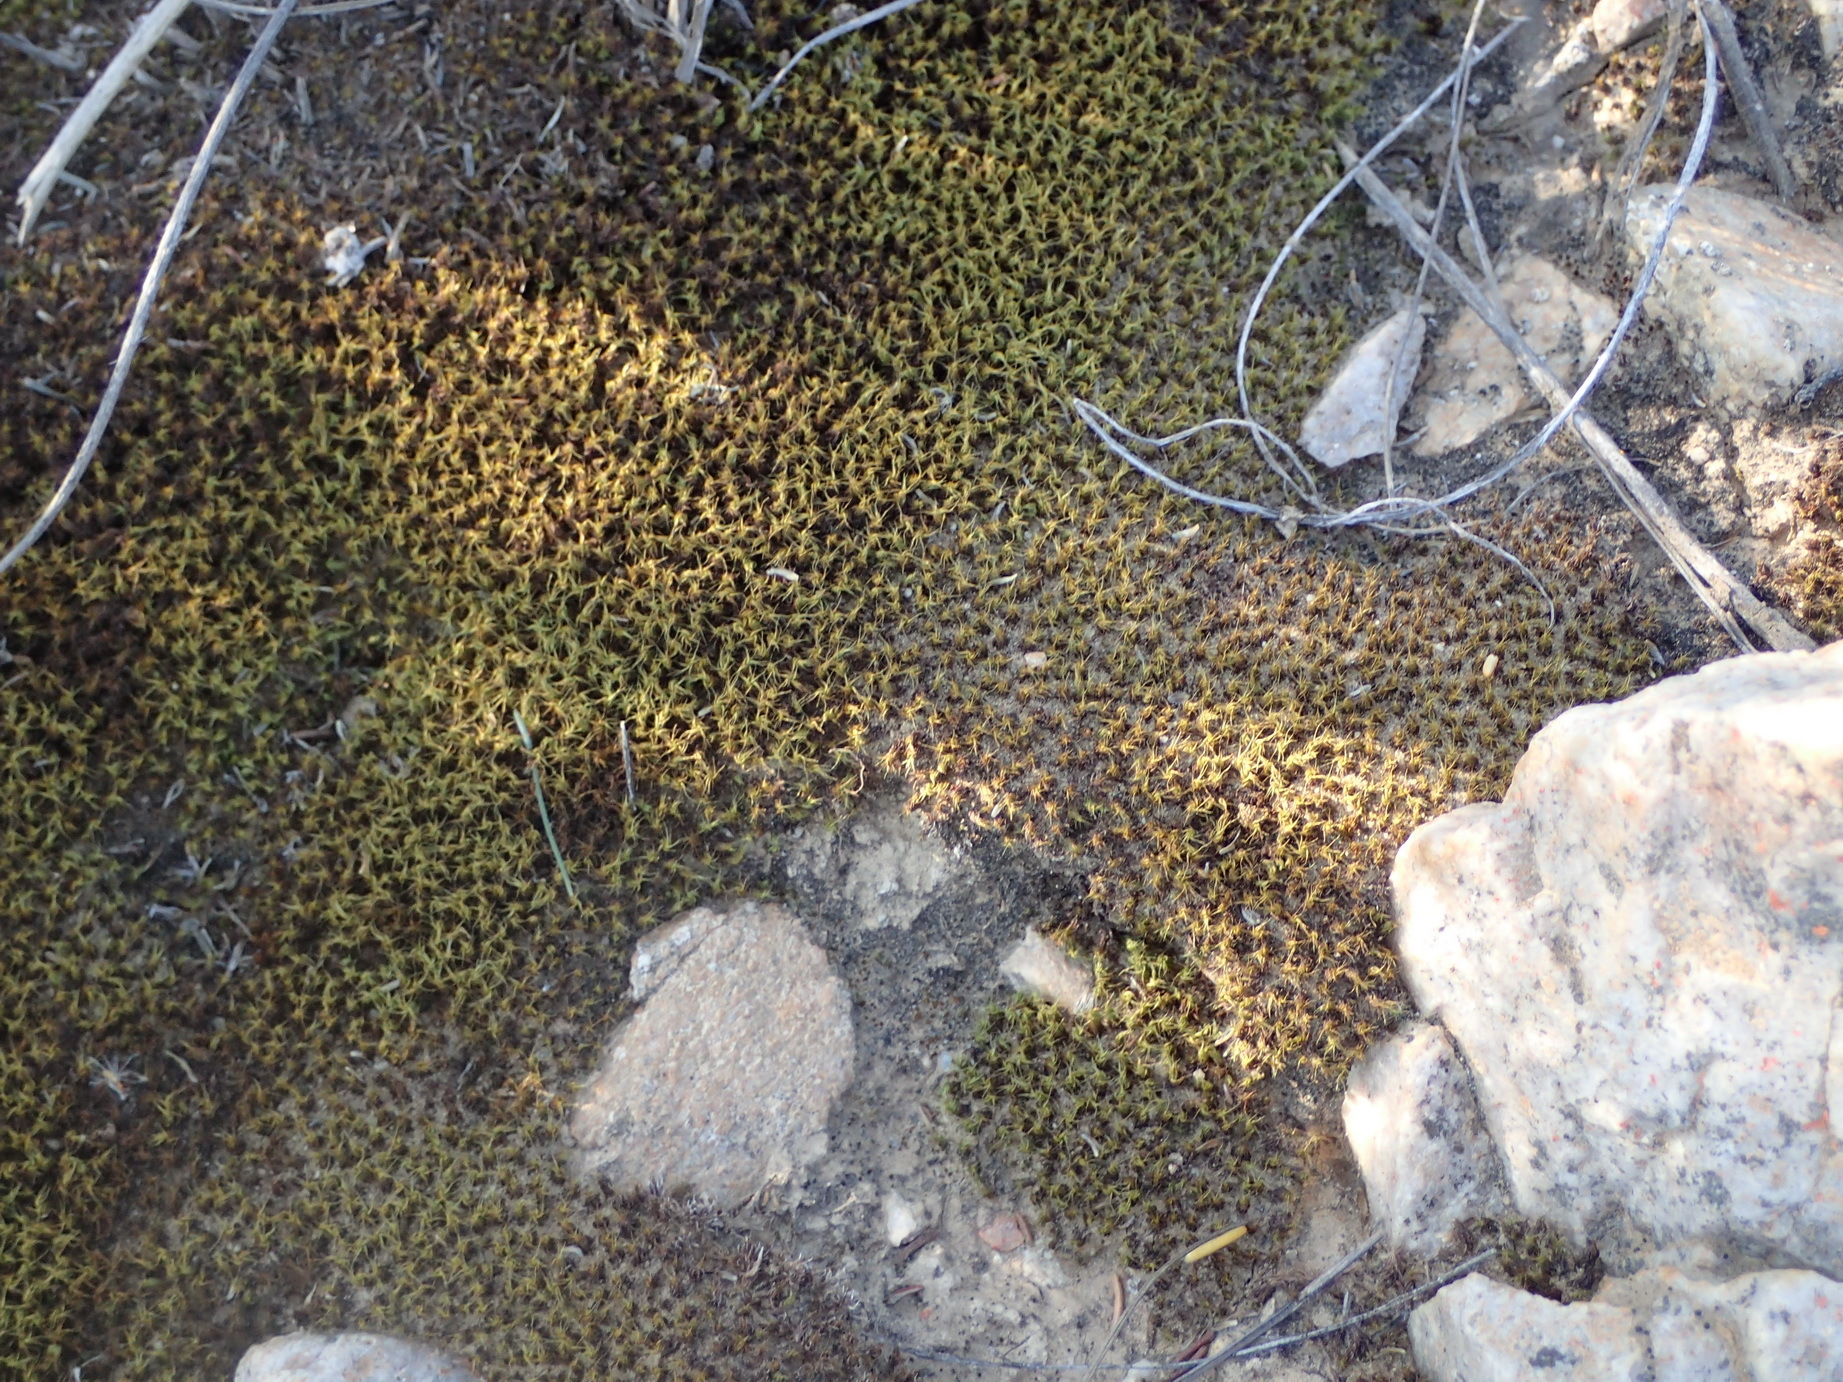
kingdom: Plantae
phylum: Bryophyta
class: Bryopsida
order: Pottiales
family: Pottiaceae
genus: Pseudocrossidium
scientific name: Pseudocrossidium crinitum
